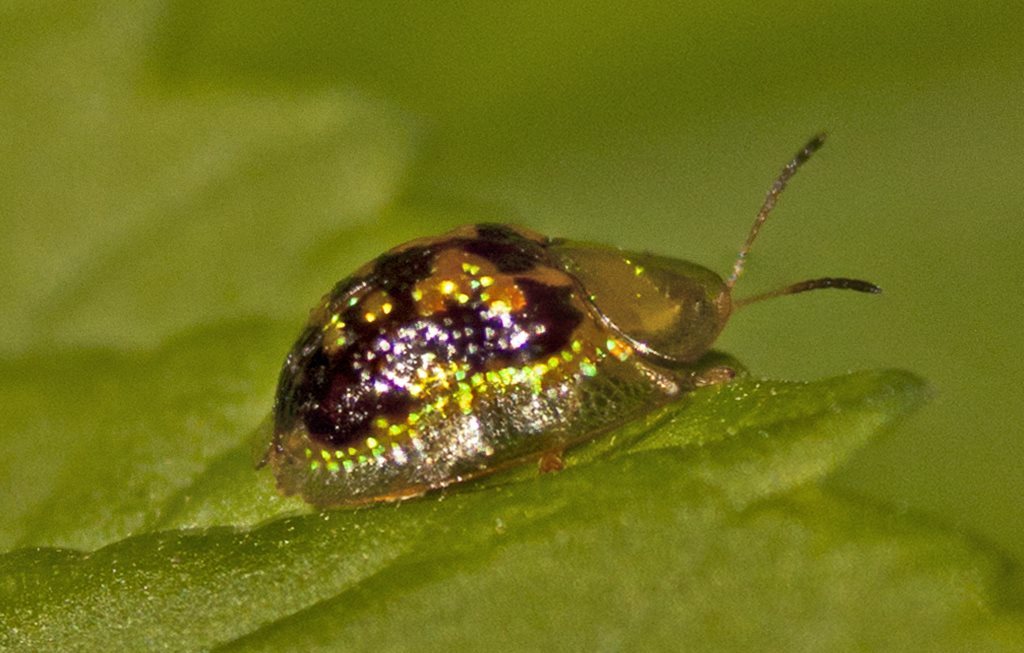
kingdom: Animalia
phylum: Arthropoda
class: Insecta
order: Coleoptera
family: Chrysomelidae
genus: Cassida
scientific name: Cassida diomma
